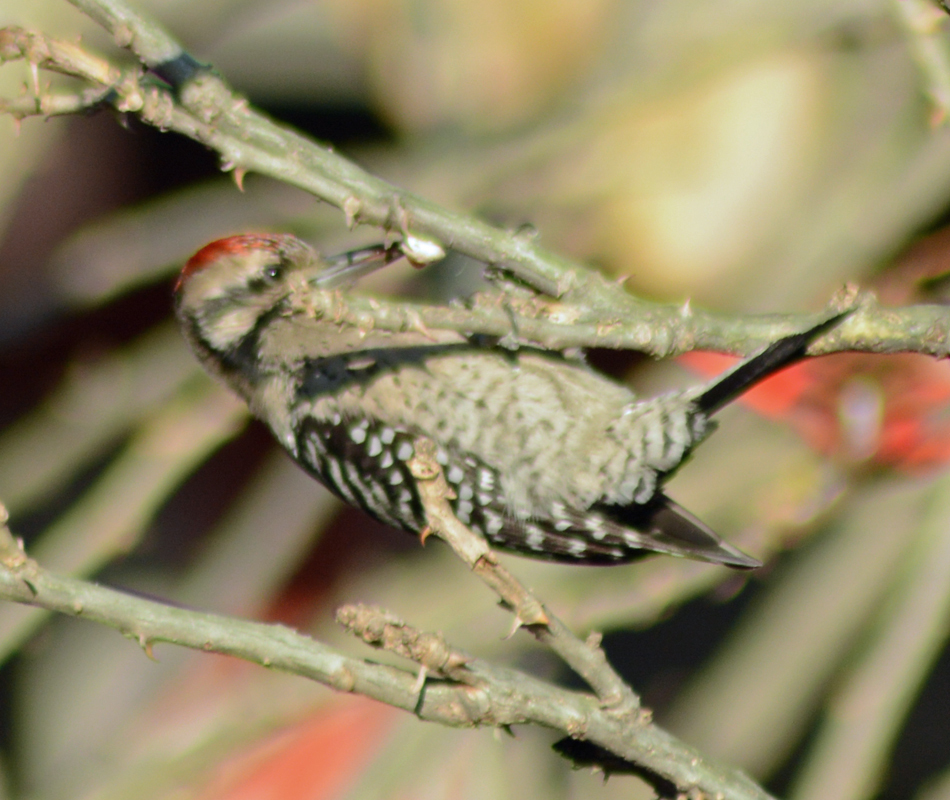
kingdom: Animalia
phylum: Chordata
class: Aves
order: Piciformes
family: Picidae
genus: Dryobates
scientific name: Dryobates scalaris
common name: Ladder-backed woodpecker
